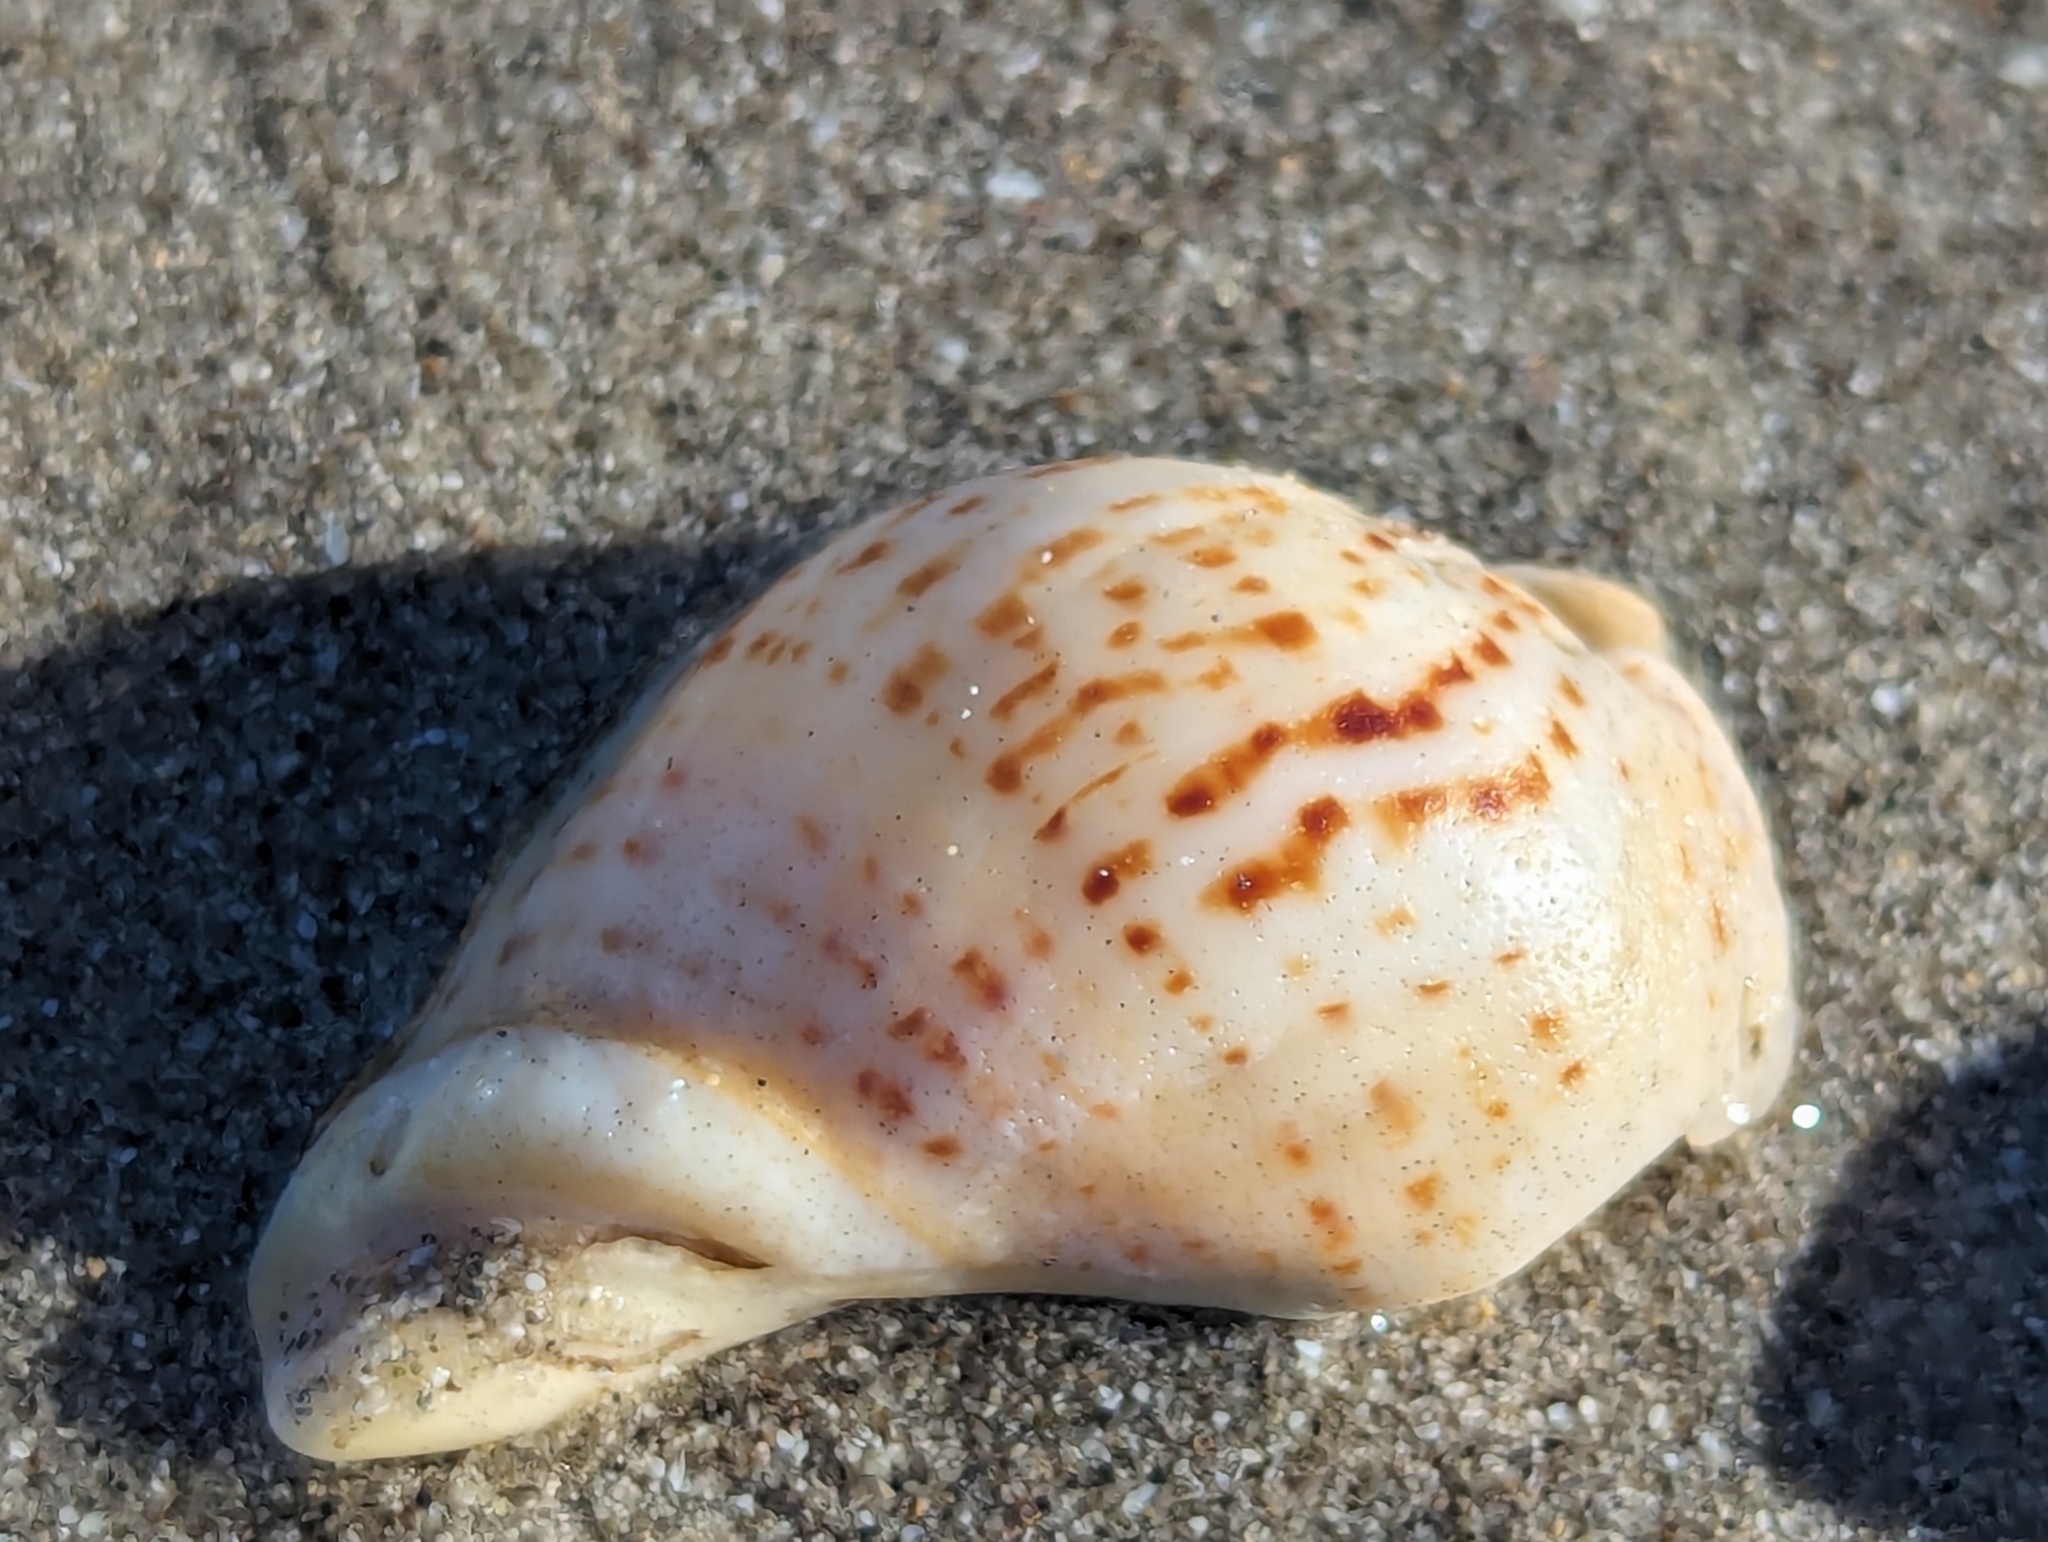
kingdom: Animalia
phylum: Mollusca
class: Gastropoda
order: Neogastropoda
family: Cominellidae
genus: Cominella
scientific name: Cominella adspersa
